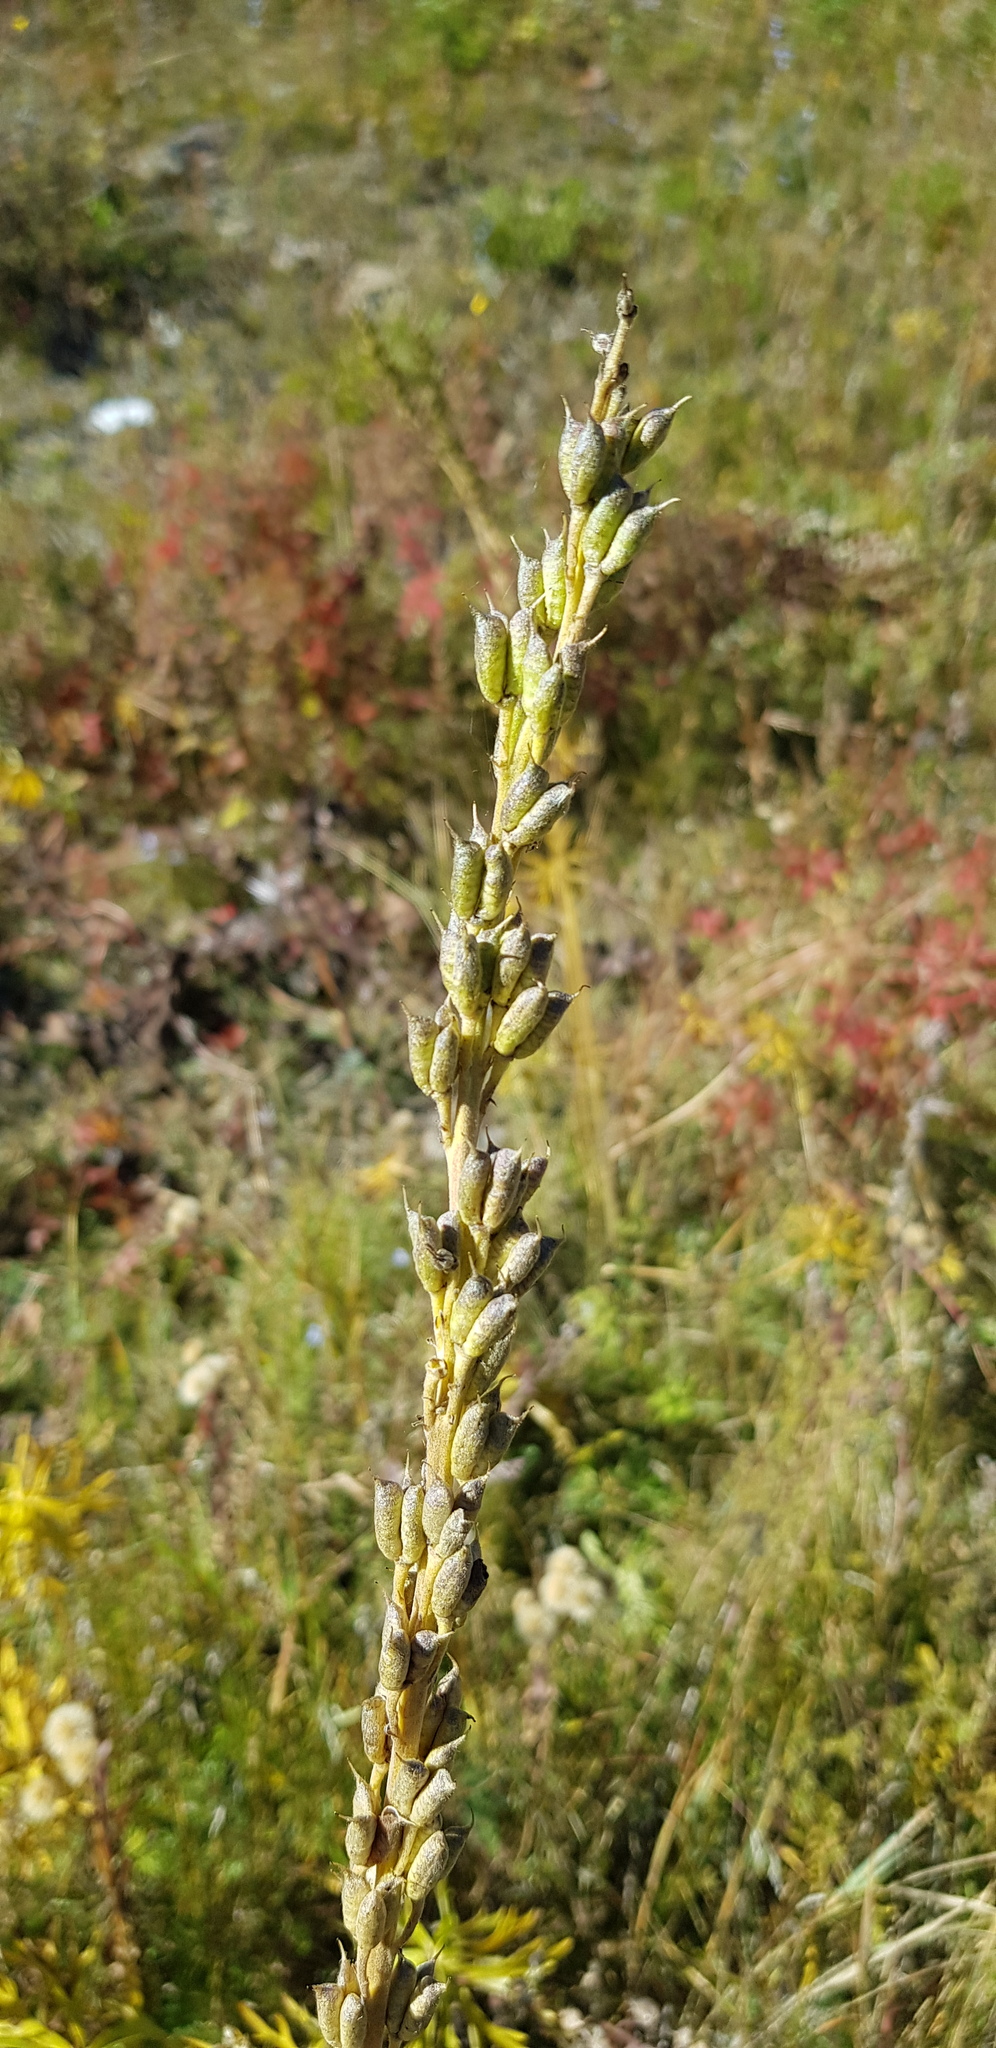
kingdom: Plantae
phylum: Tracheophyta
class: Magnoliopsida
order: Ranunculales
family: Ranunculaceae
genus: Aconitum
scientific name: Aconitum barbatum
